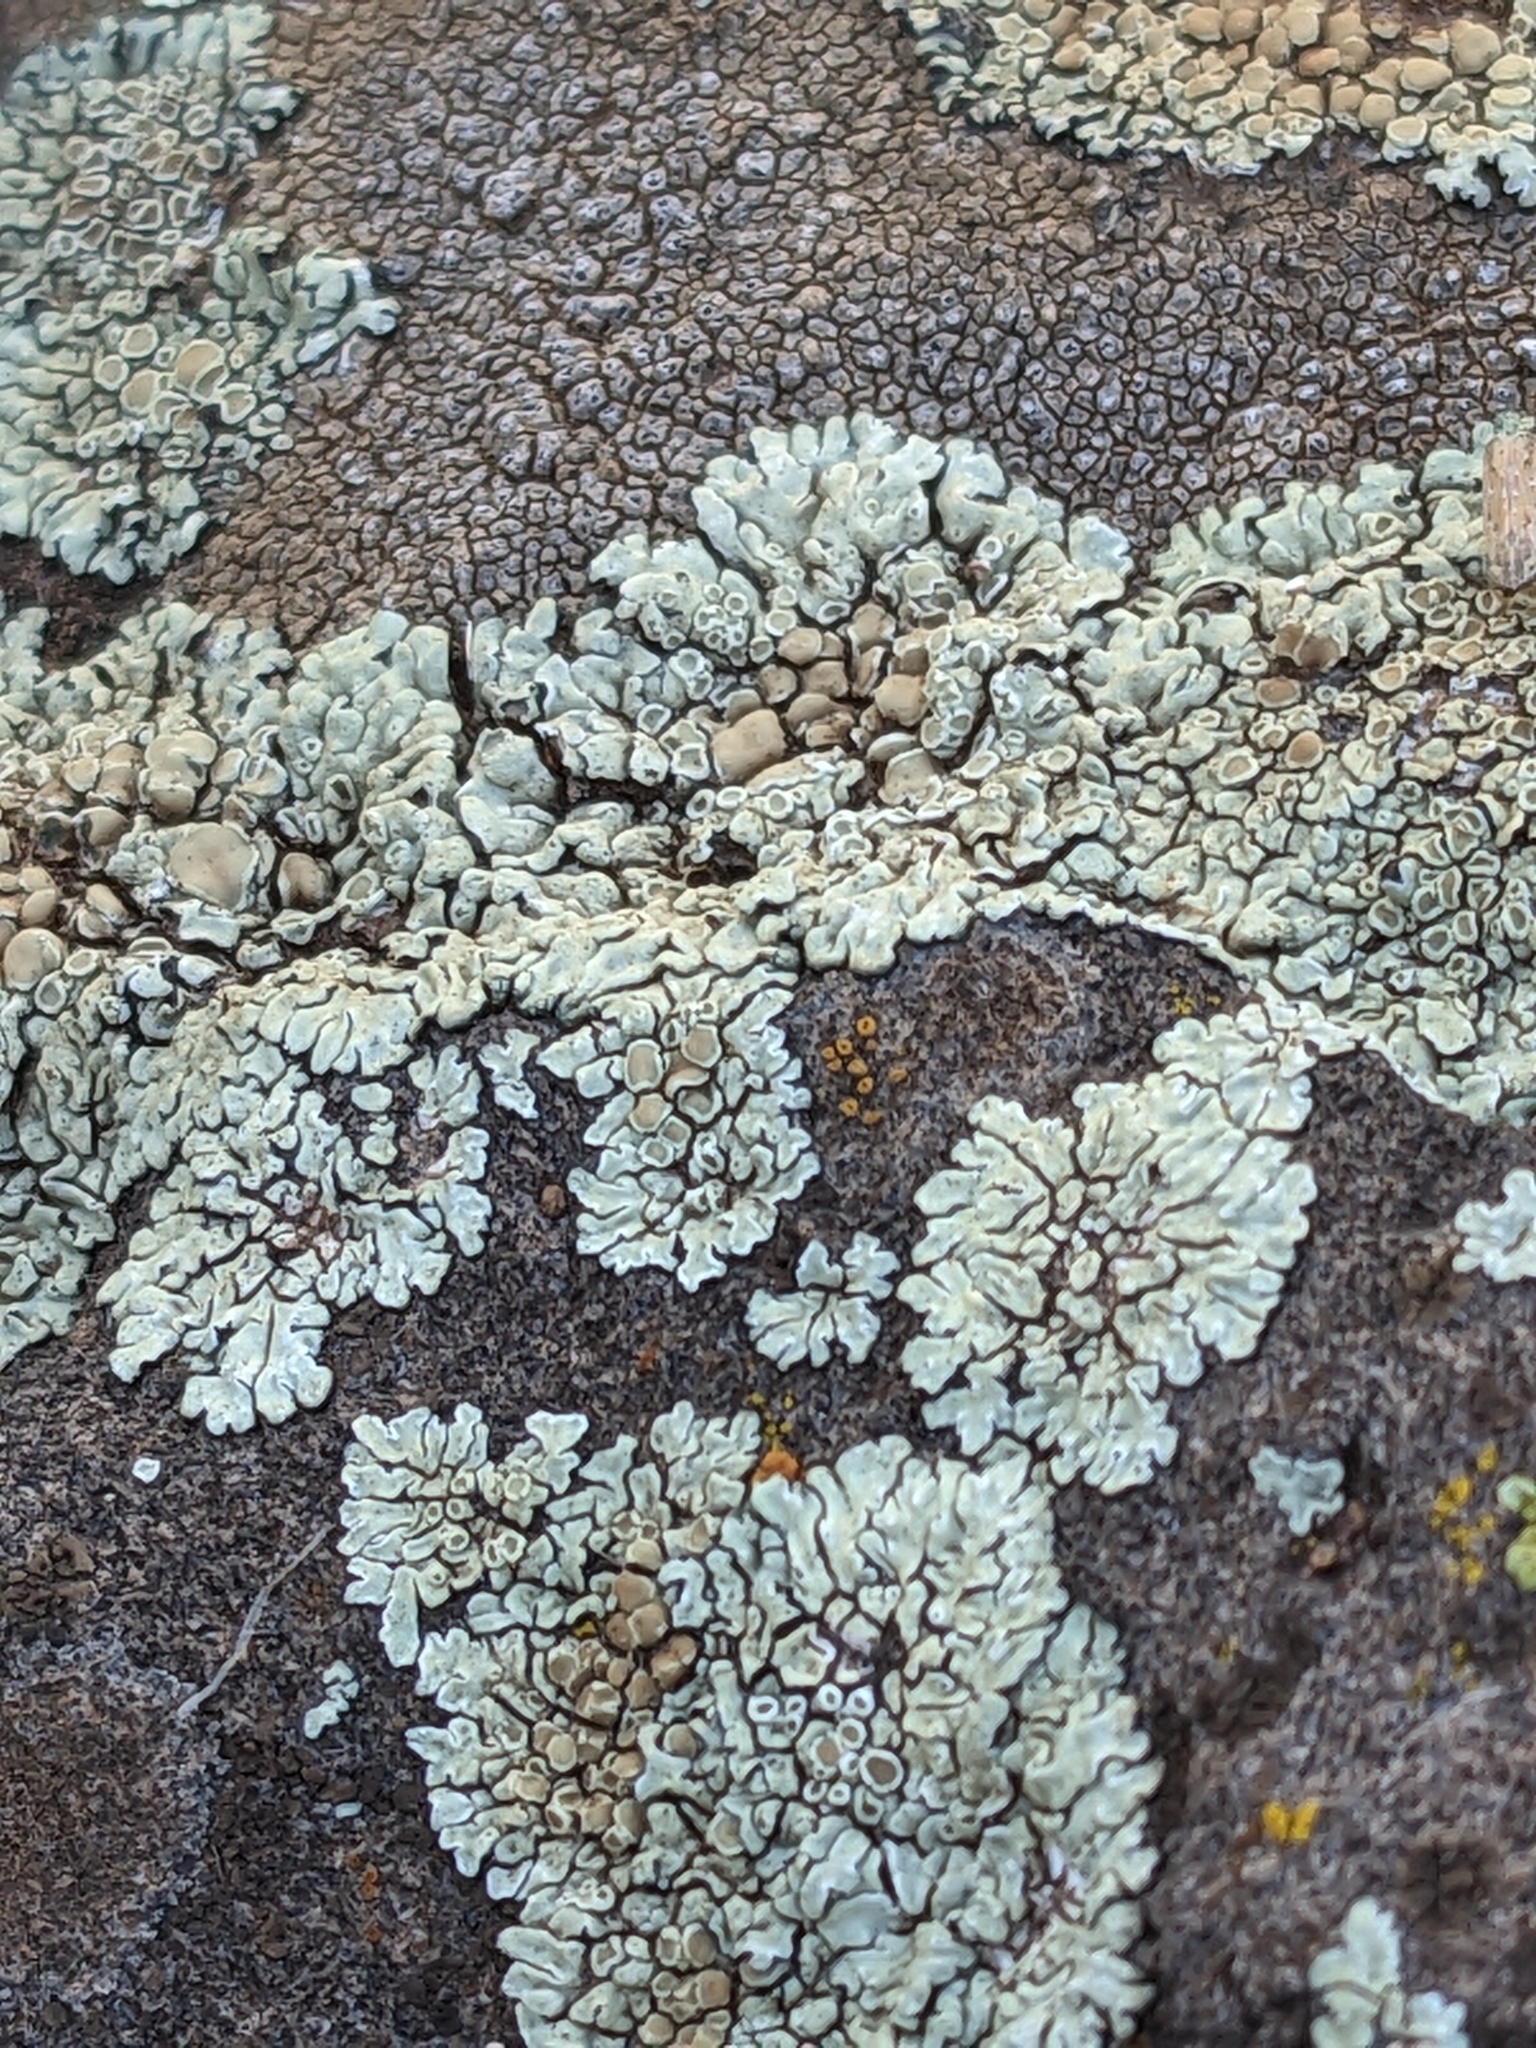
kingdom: Fungi
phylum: Ascomycota
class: Lecanoromycetes
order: Lecanorales
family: Lecanoraceae
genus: Protoparmeliopsis
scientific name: Protoparmeliopsis muralis
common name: Stonewall rim lichen
